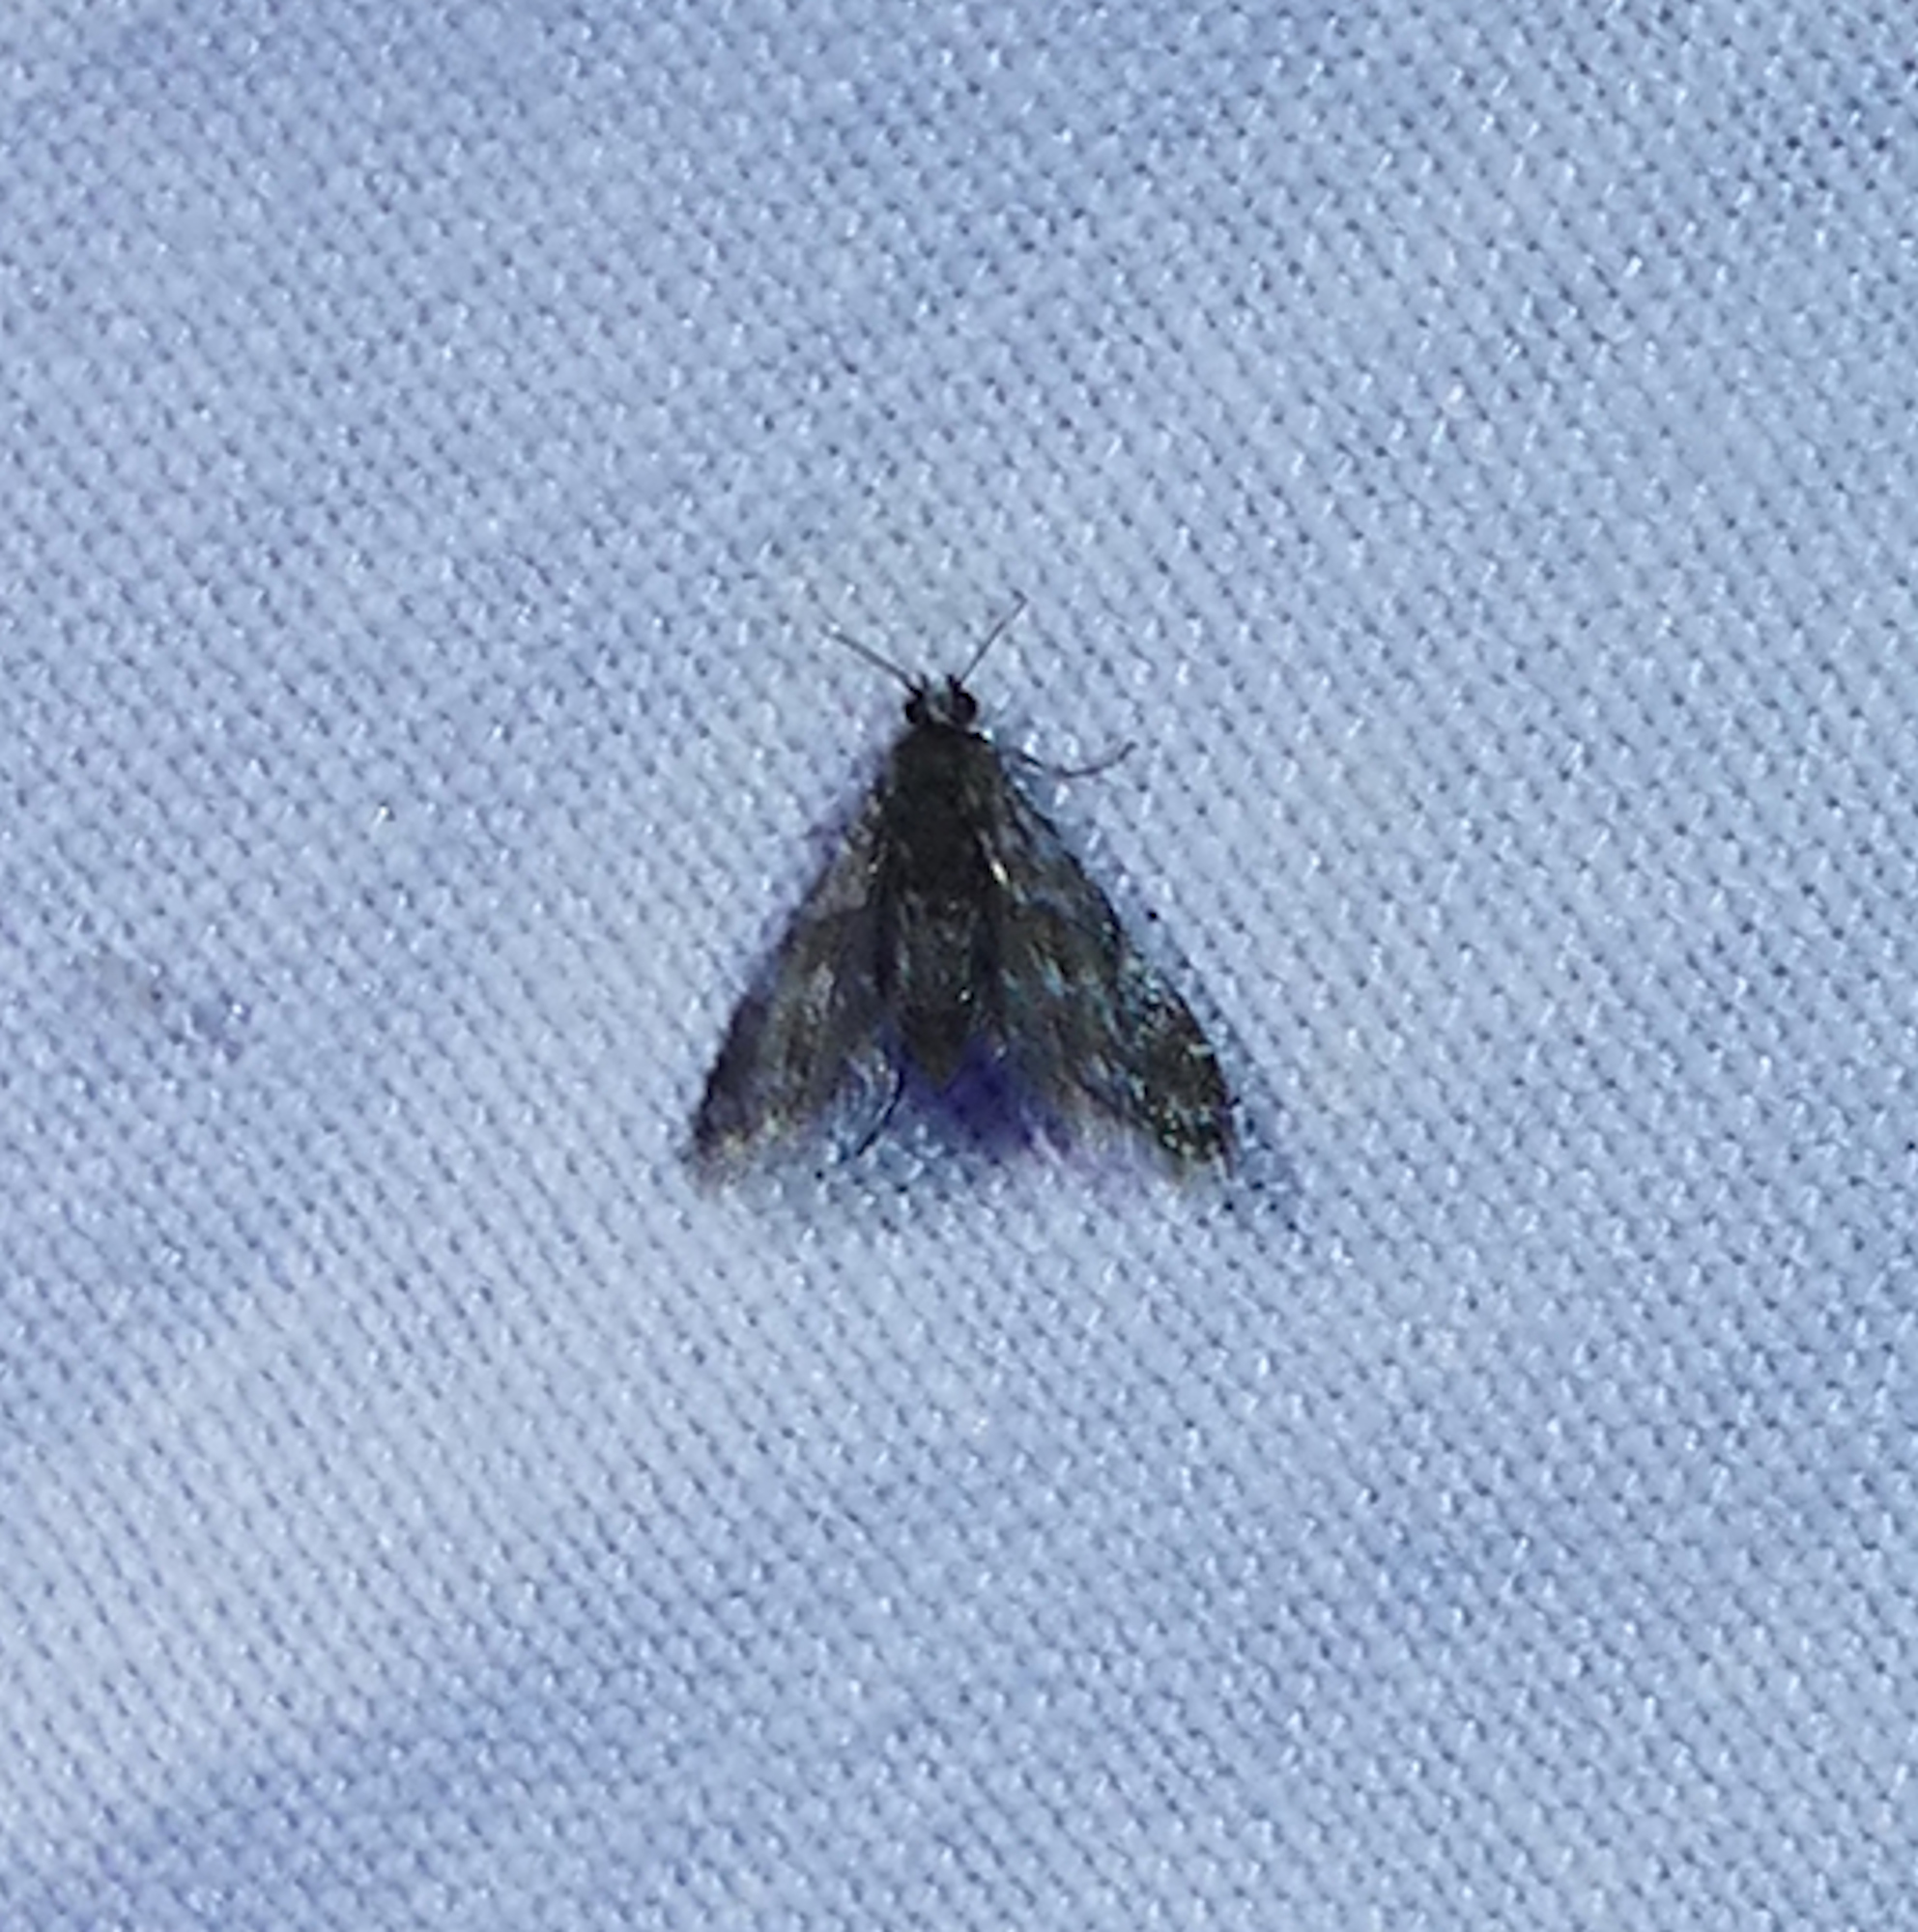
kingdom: Animalia
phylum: Arthropoda
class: Insecta
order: Lepidoptera
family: Crambidae
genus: Elophila
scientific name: Elophila tinealis
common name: Black duckweed moth
